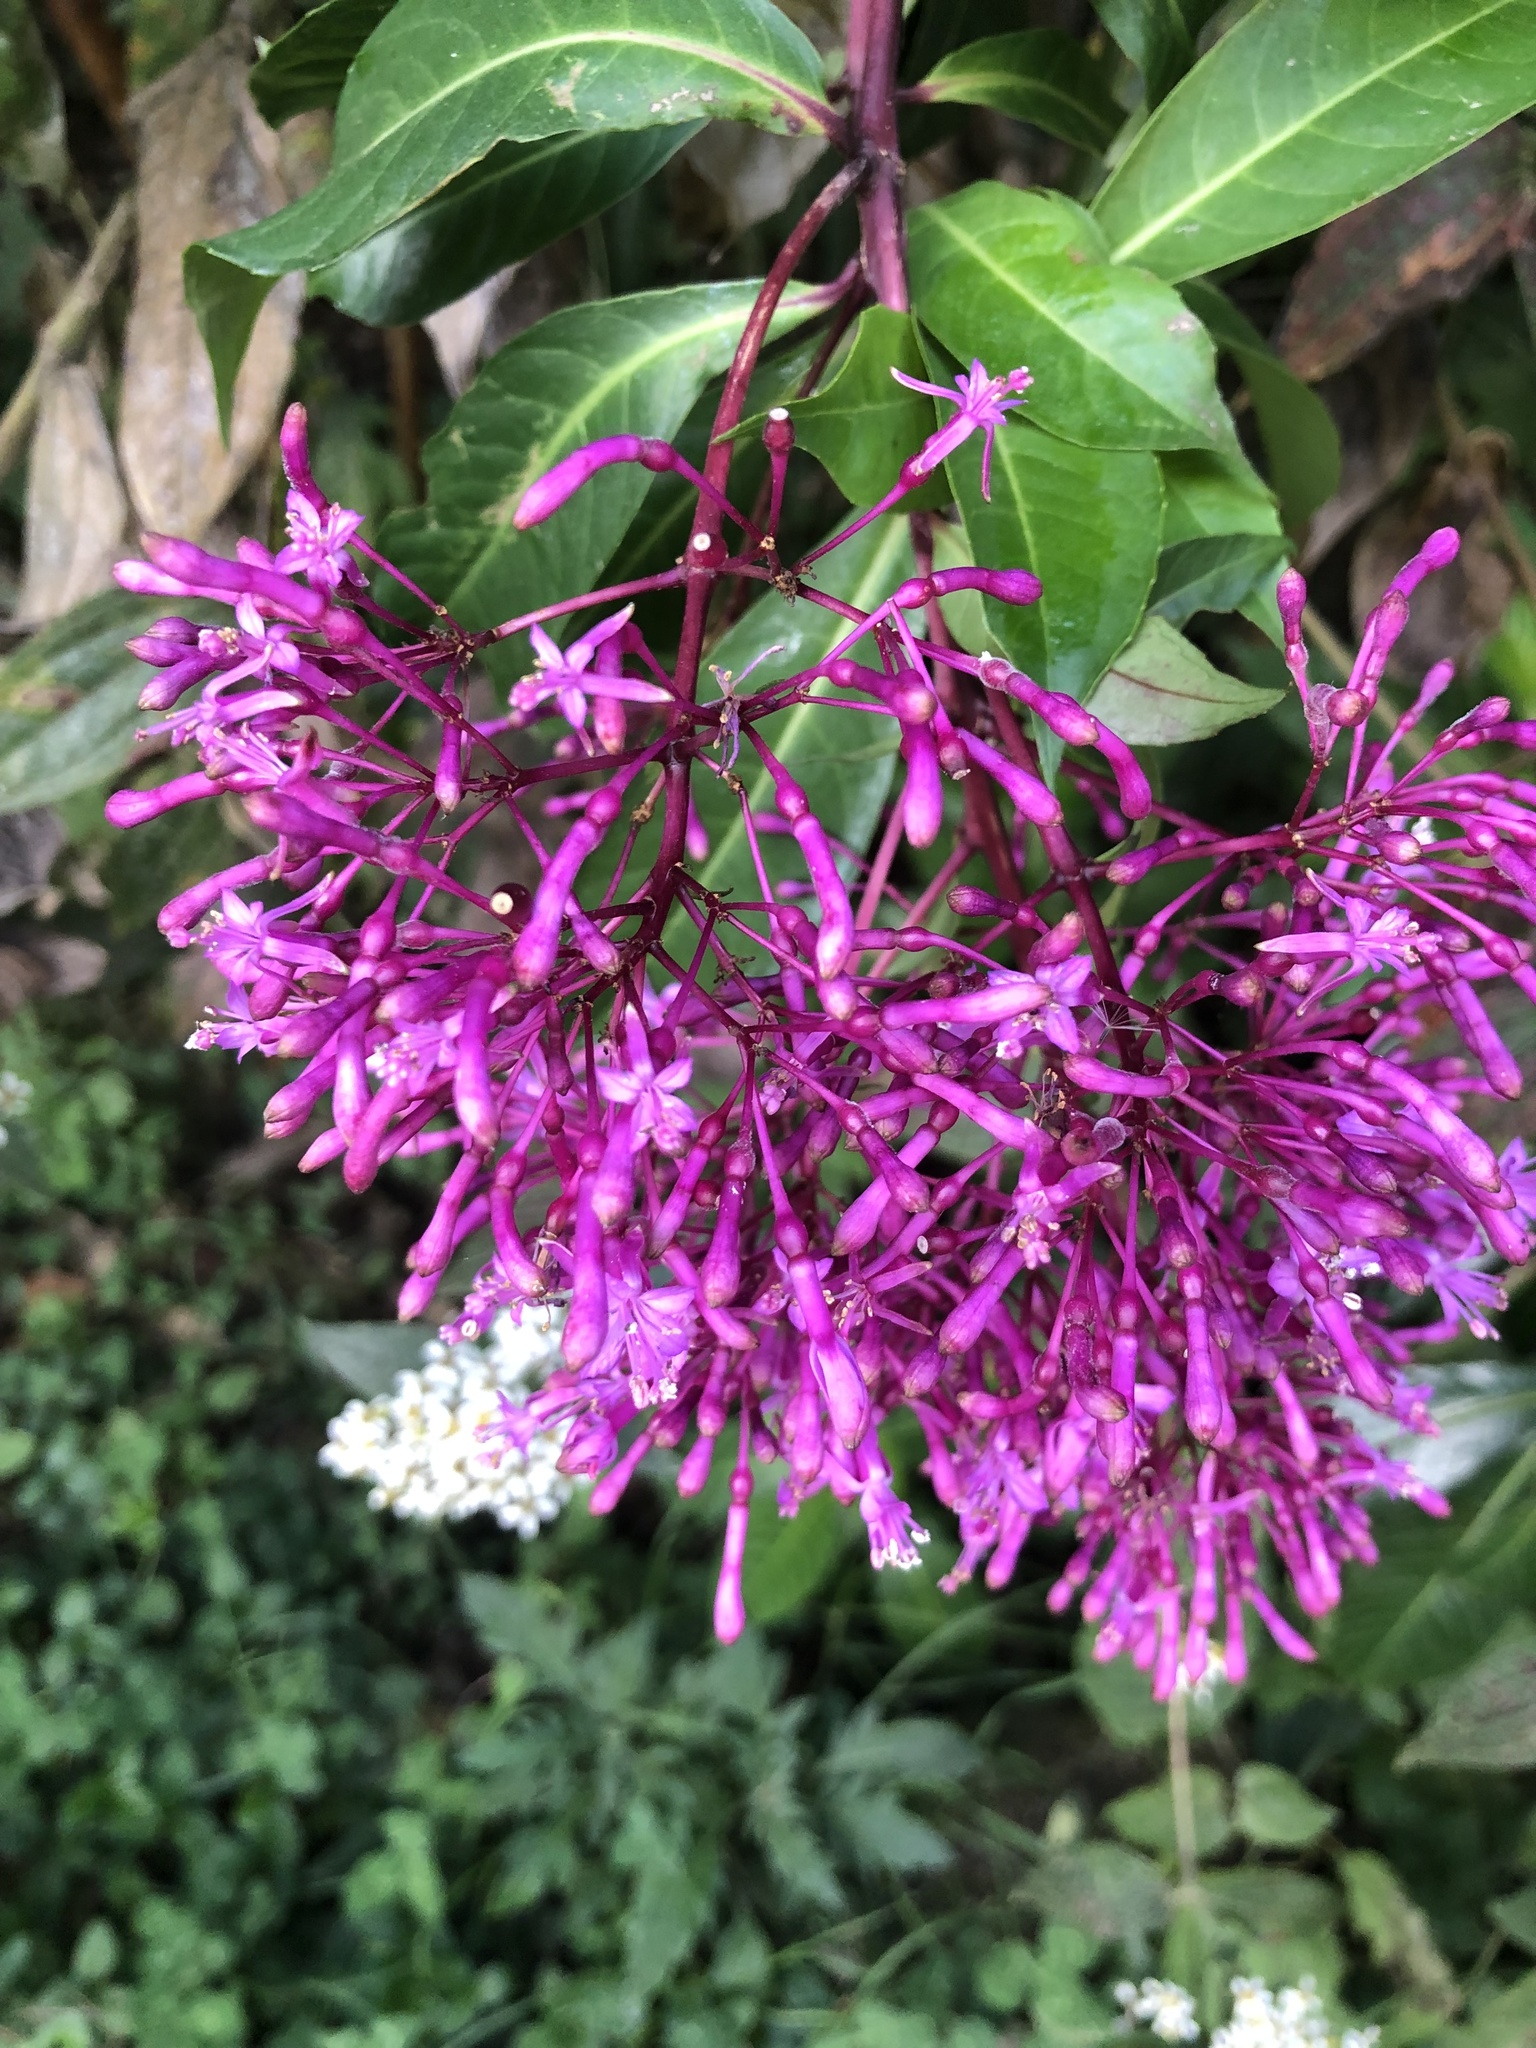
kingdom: Plantae
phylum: Tracheophyta
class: Magnoliopsida
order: Myrtales
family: Onagraceae
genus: Fuchsia
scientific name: Fuchsia paniculata
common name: Shrubby fuchsia
